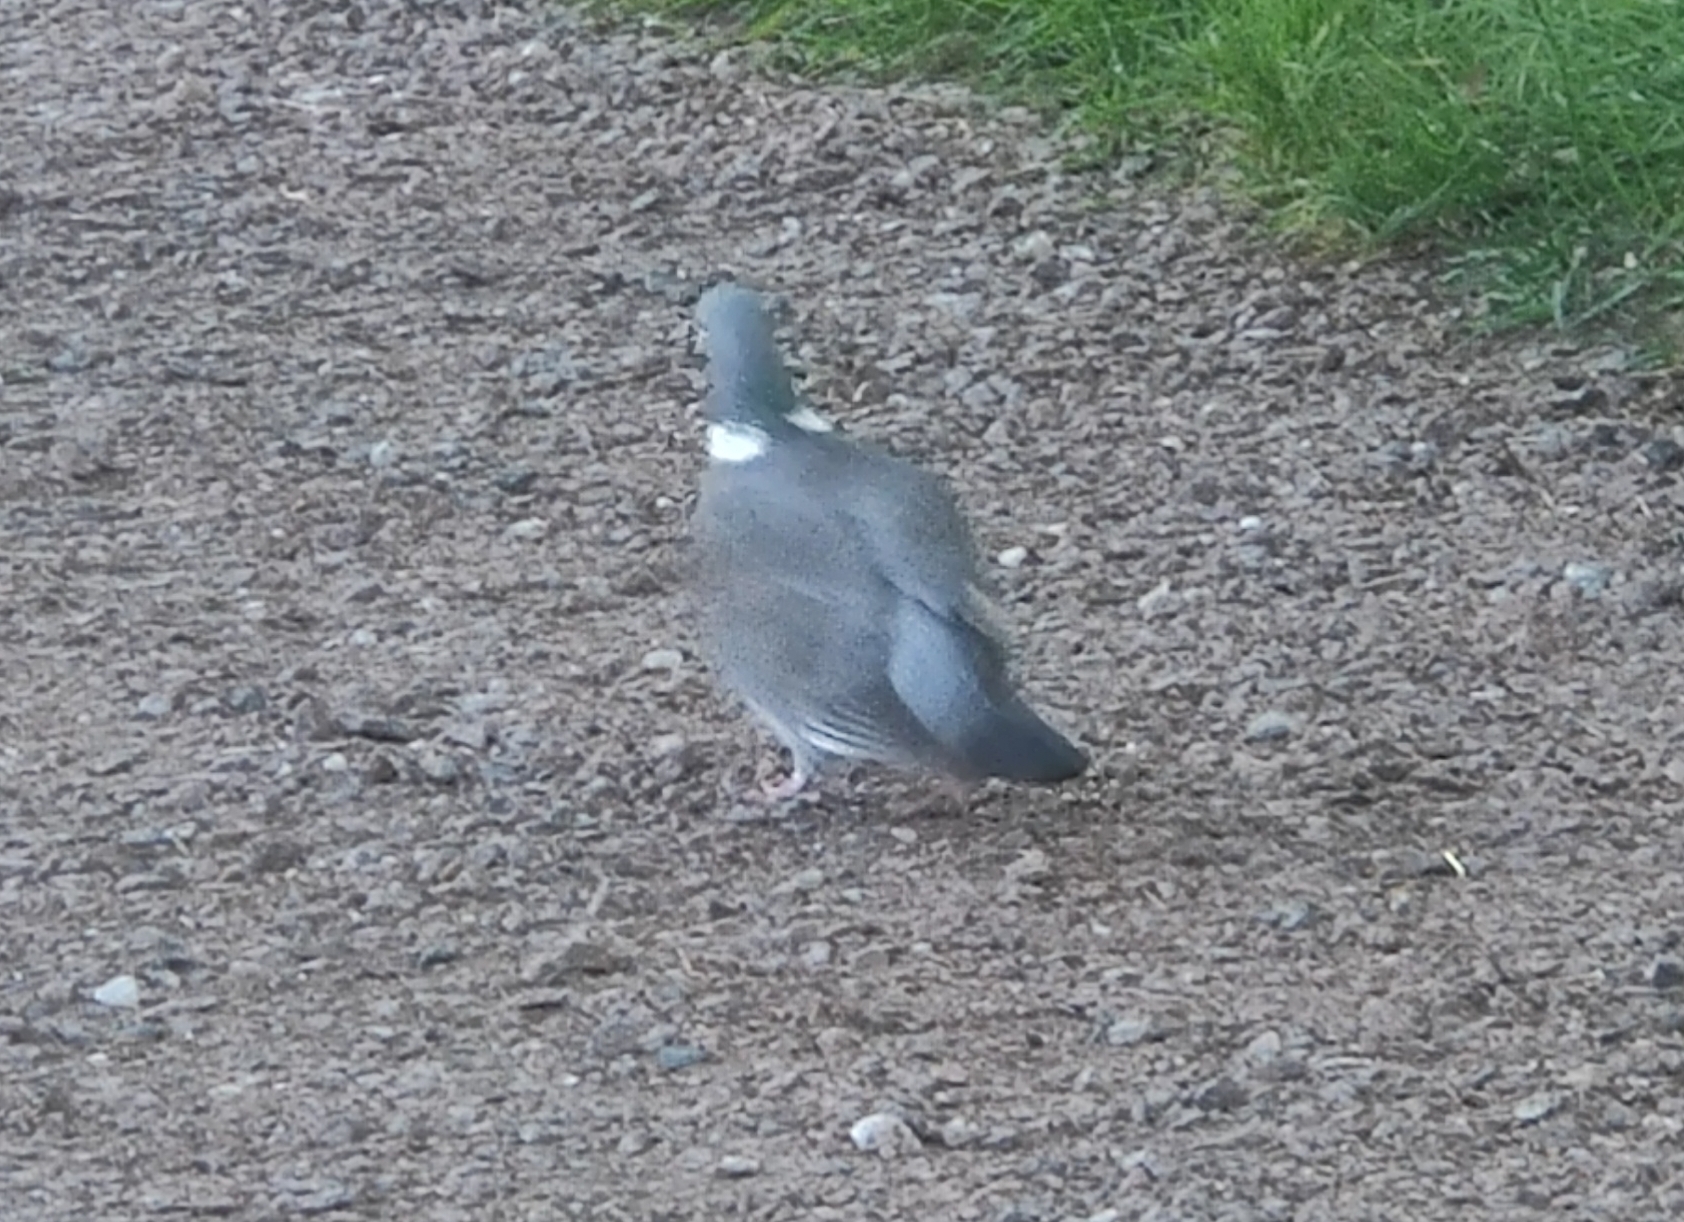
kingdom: Animalia
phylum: Chordata
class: Aves
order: Columbiformes
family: Columbidae
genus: Columba
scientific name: Columba palumbus
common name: Common wood pigeon
